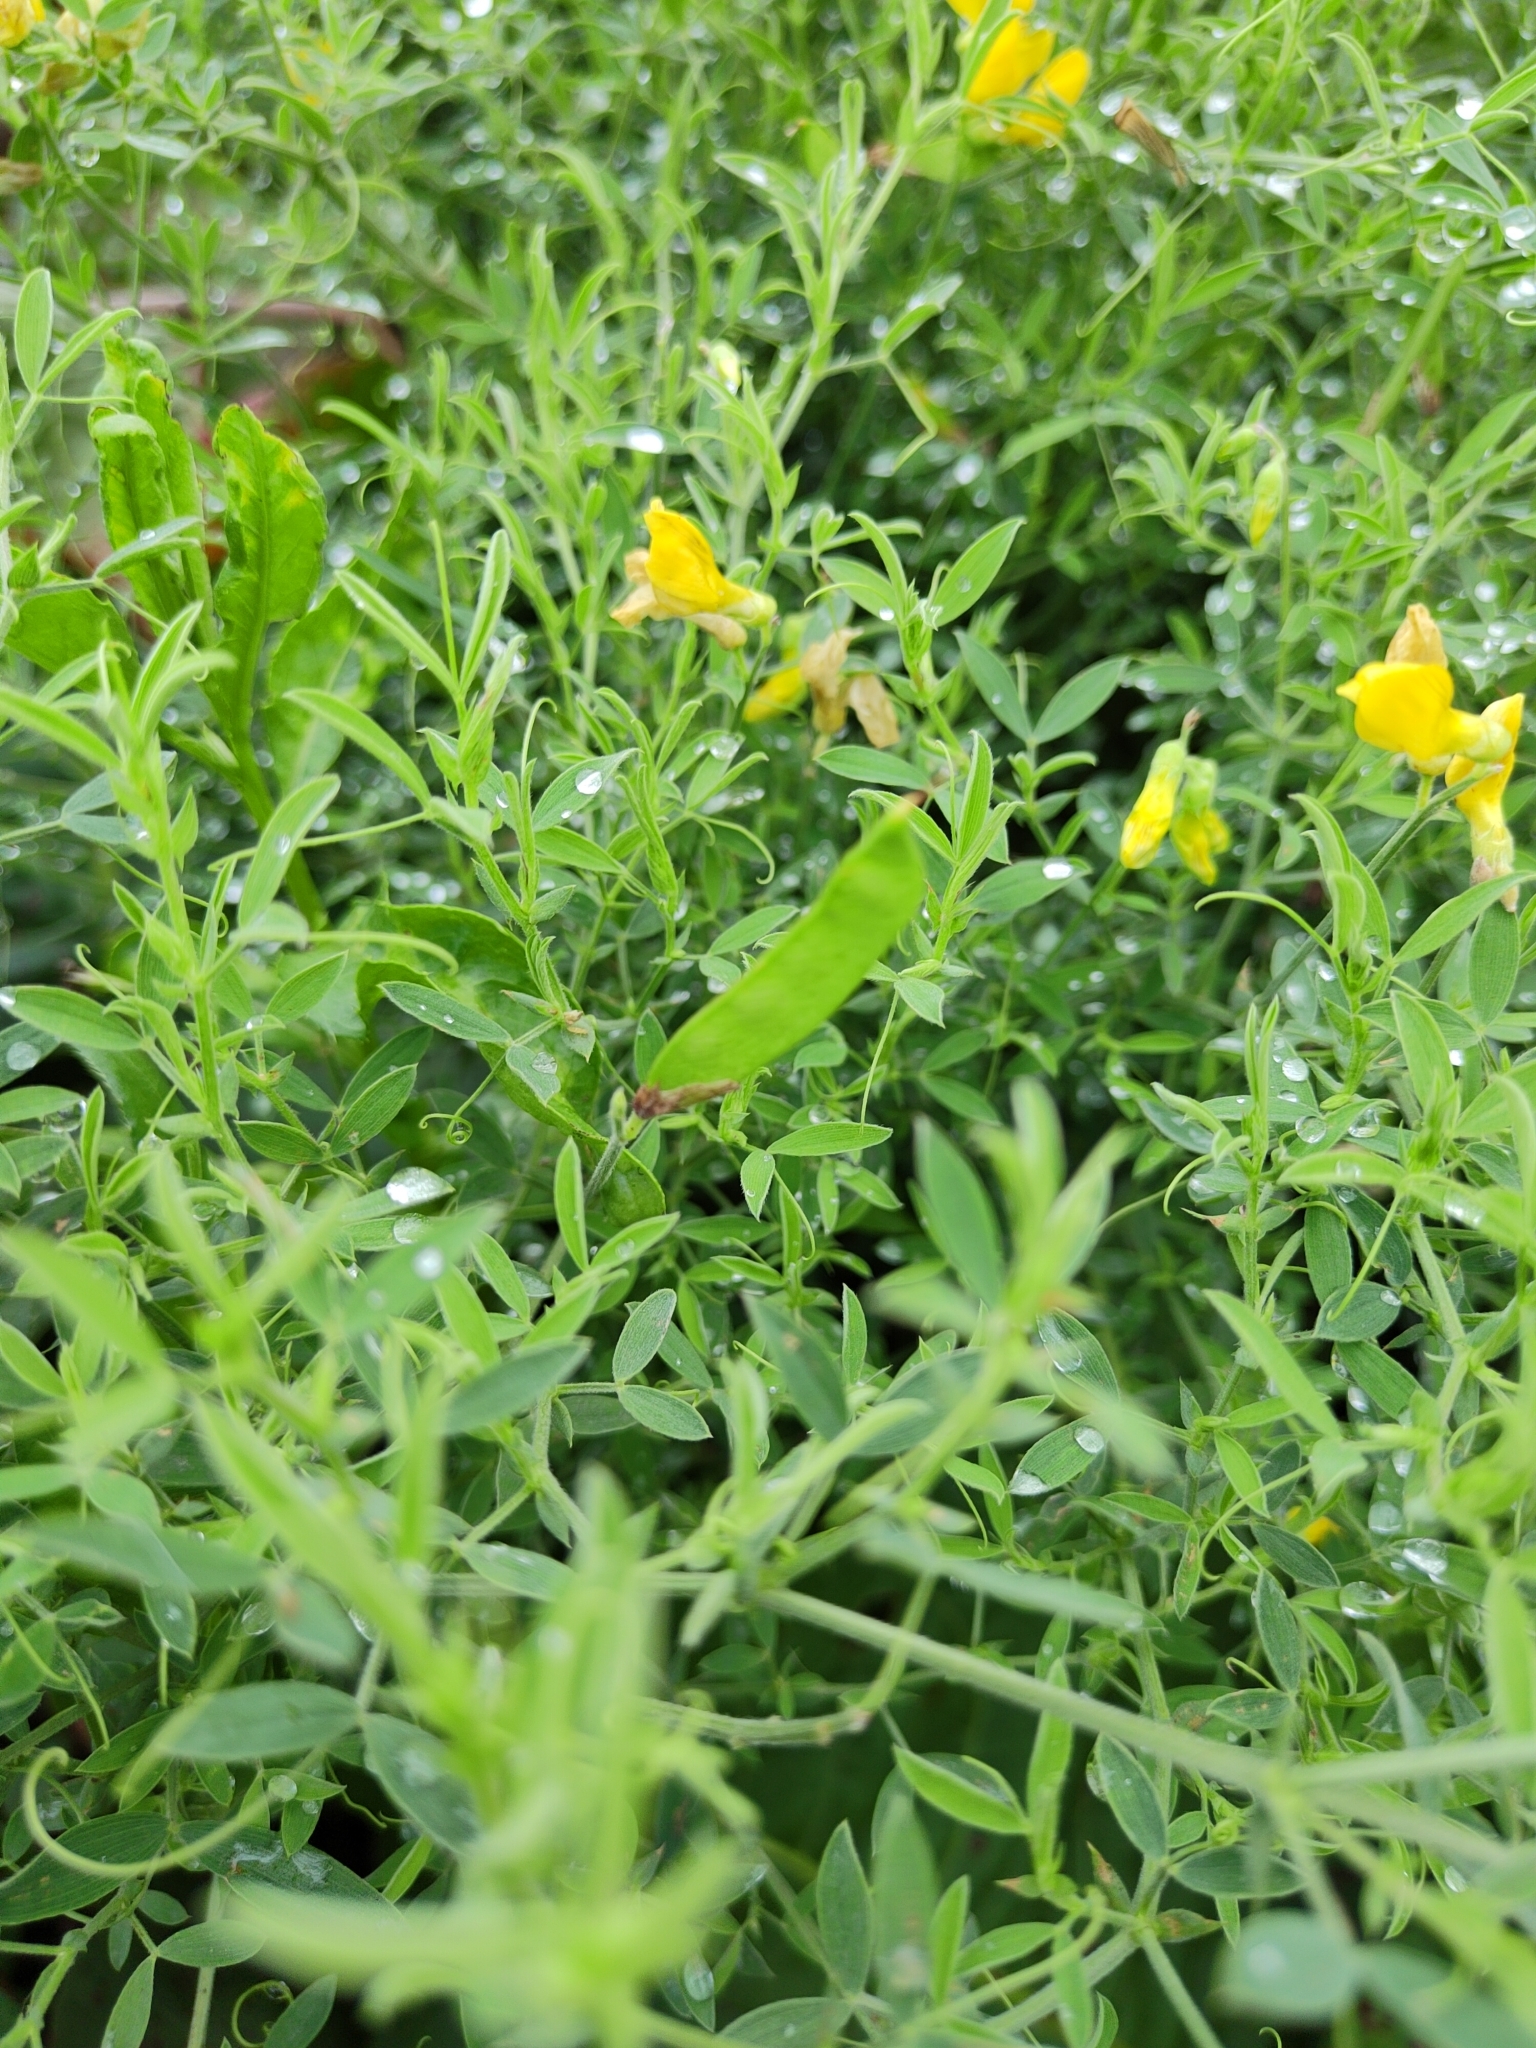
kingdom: Plantae
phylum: Tracheophyta
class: Magnoliopsida
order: Fabales
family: Fabaceae
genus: Lathyrus
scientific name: Lathyrus pratensis
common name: Meadow vetchling
